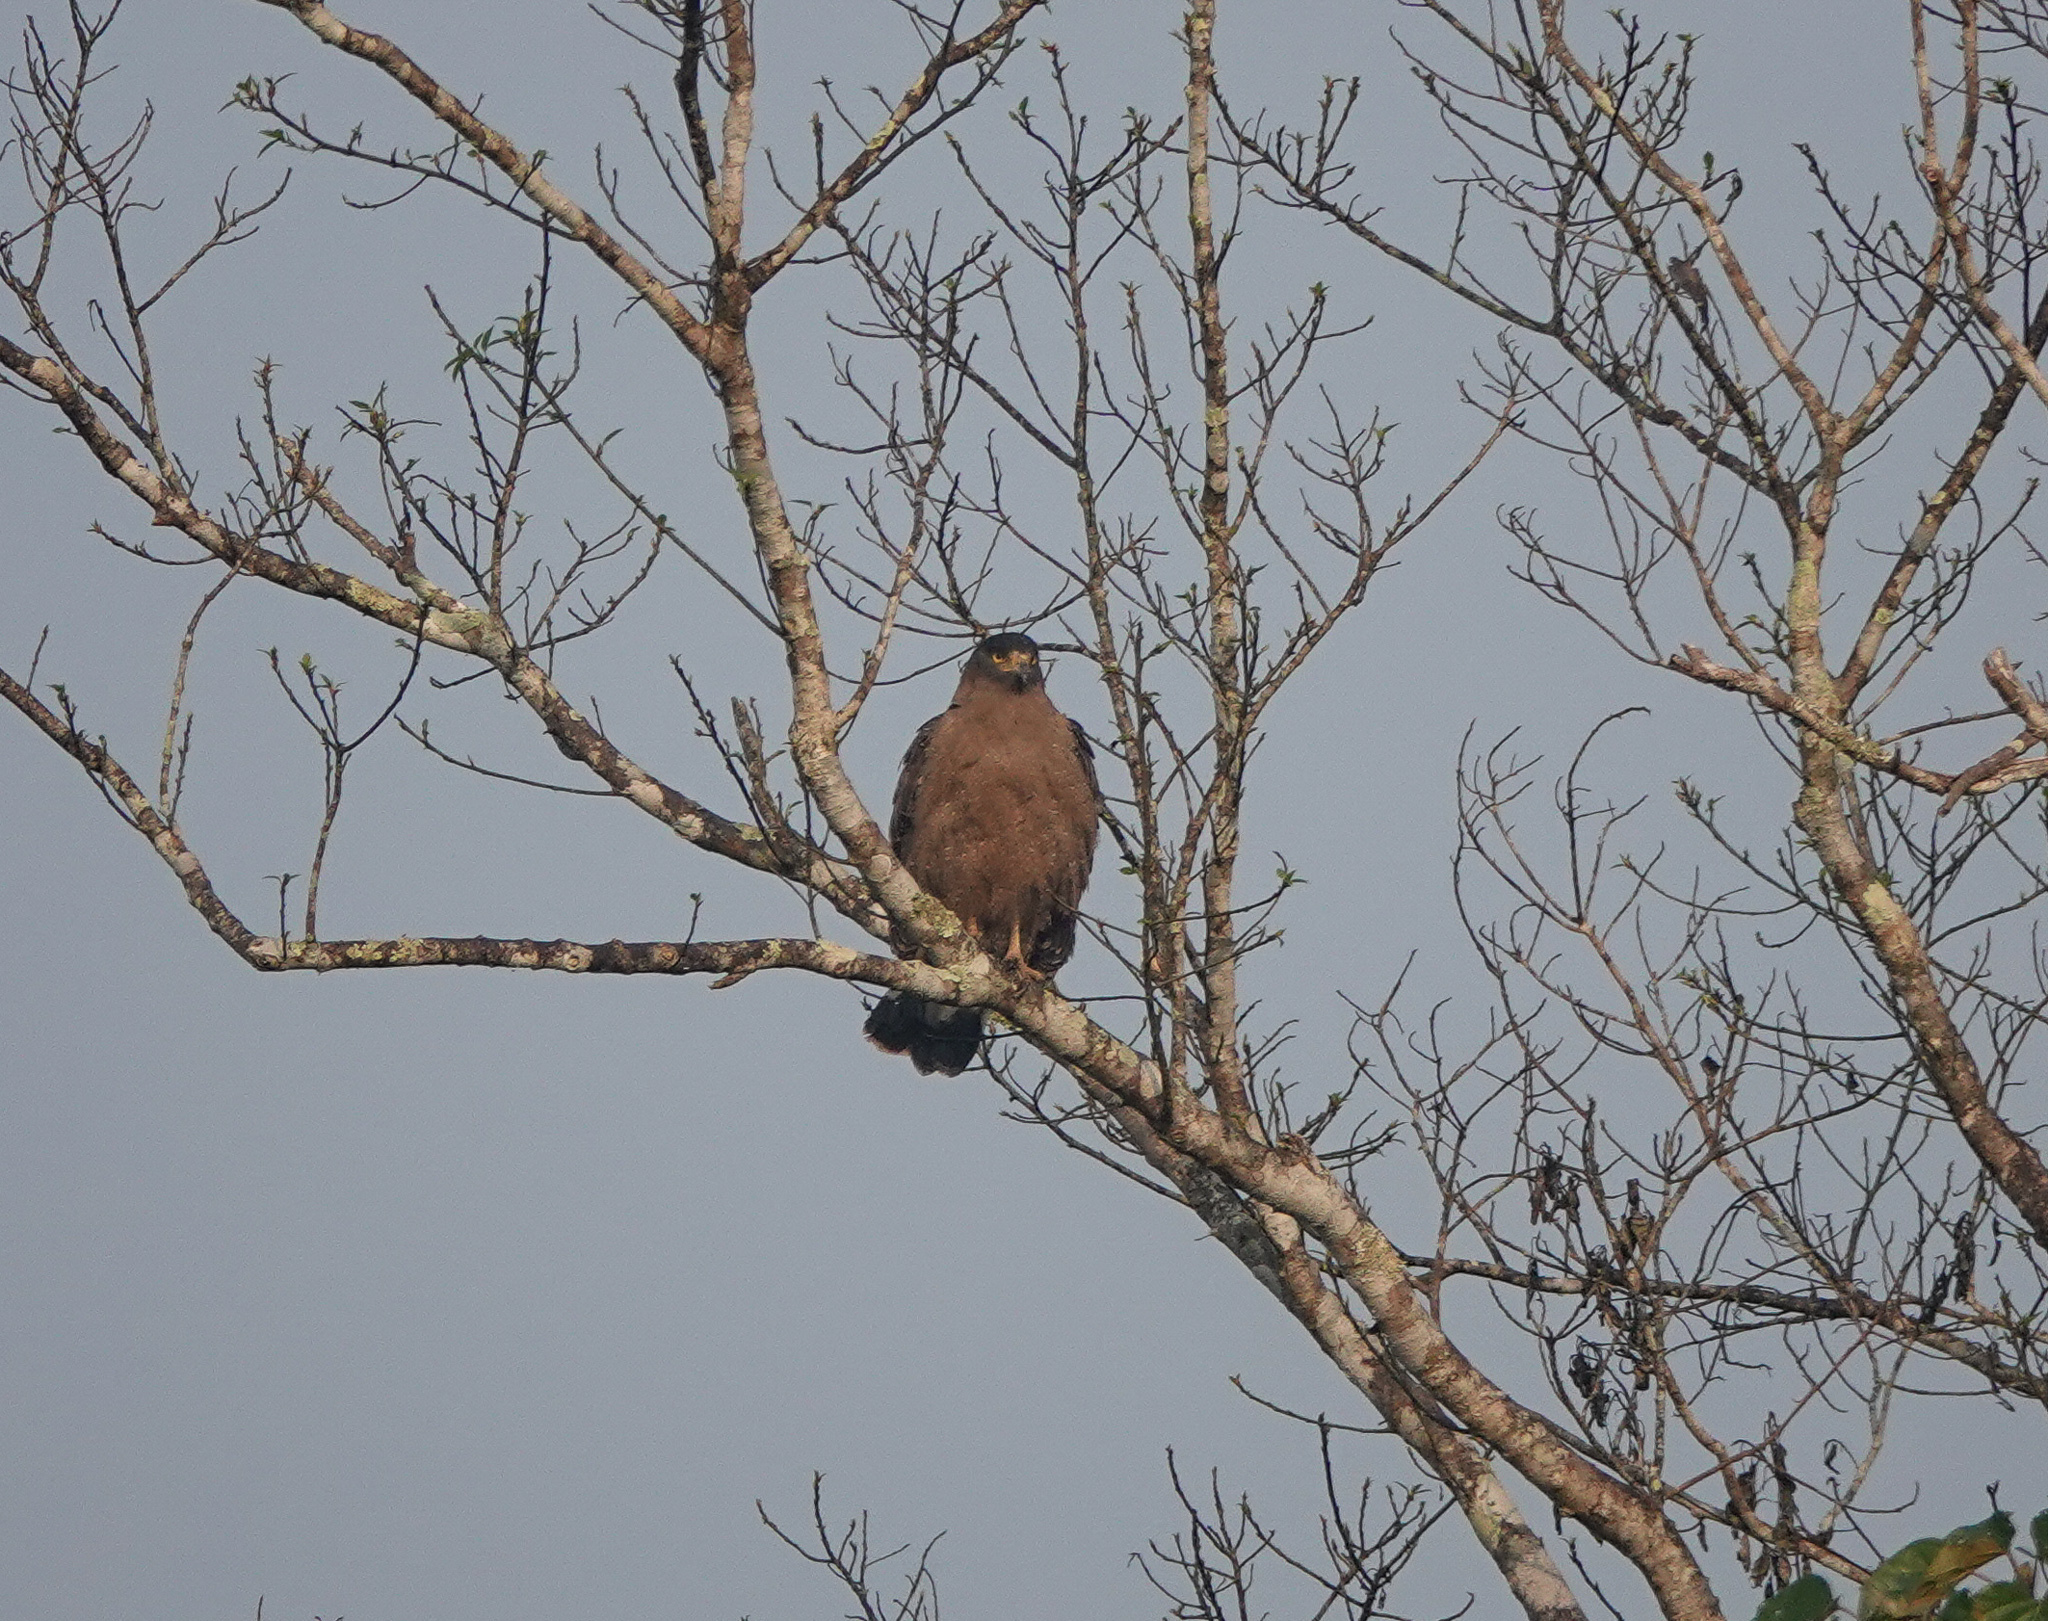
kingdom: Animalia
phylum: Chordata
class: Aves
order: Accipitriformes
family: Accipitridae
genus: Spilornis
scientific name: Spilornis cheela
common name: Crested serpent eagle
